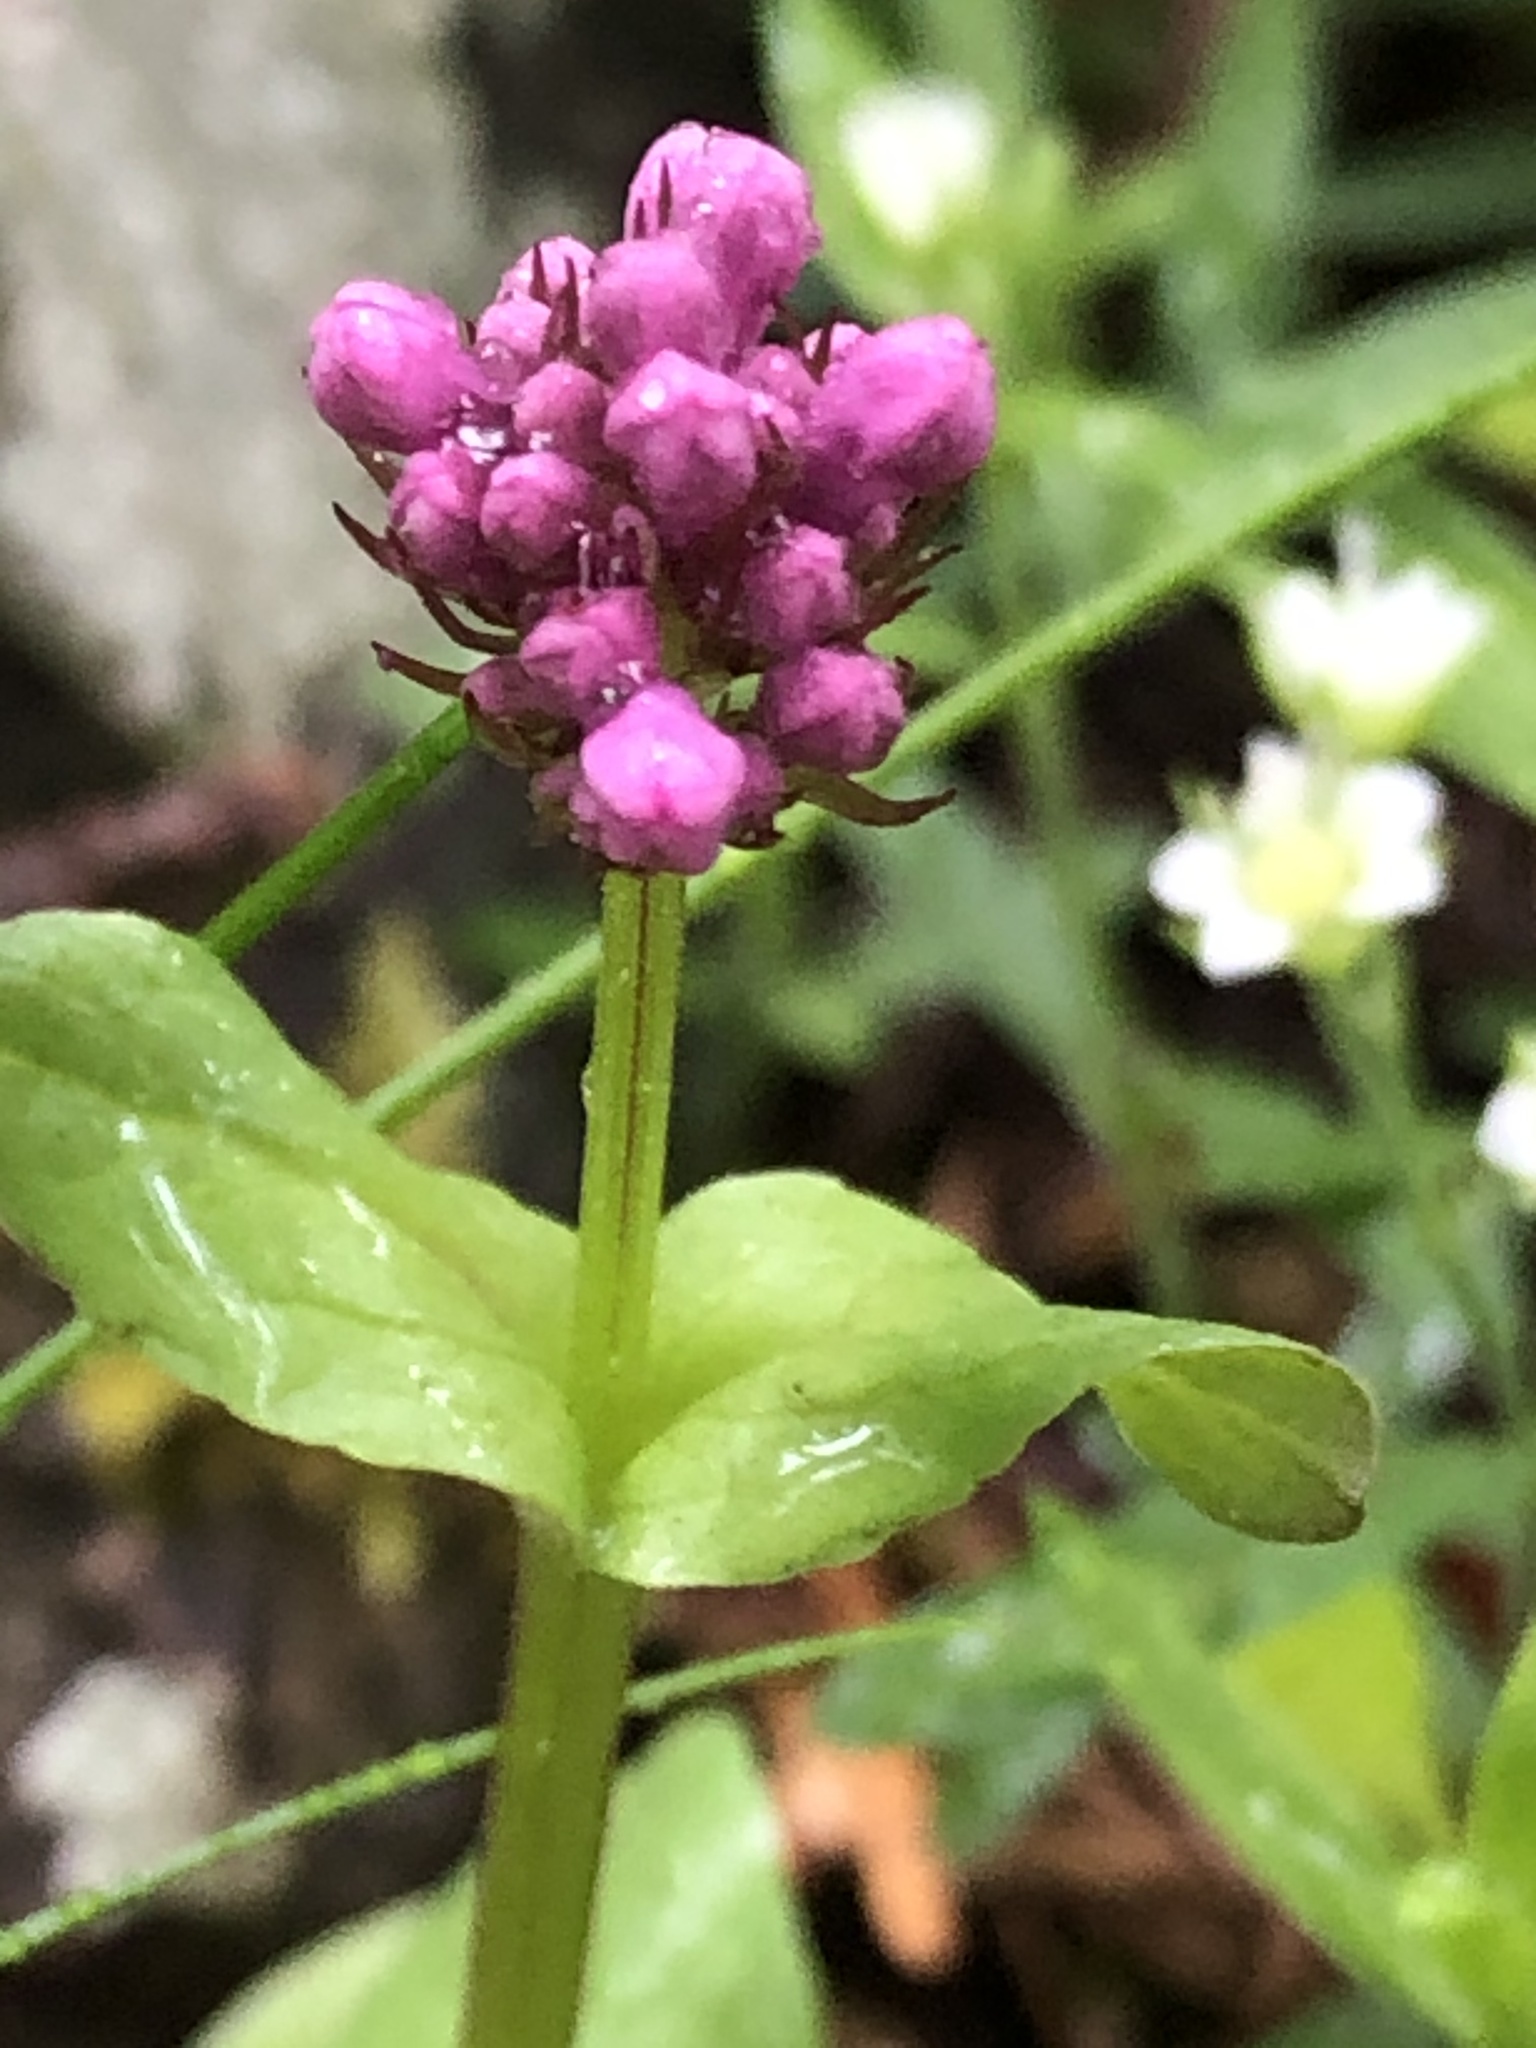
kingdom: Plantae
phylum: Tracheophyta
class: Magnoliopsida
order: Dipsacales
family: Caprifoliaceae
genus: Plectritis
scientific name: Plectritis congesta
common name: Pink plectritis
